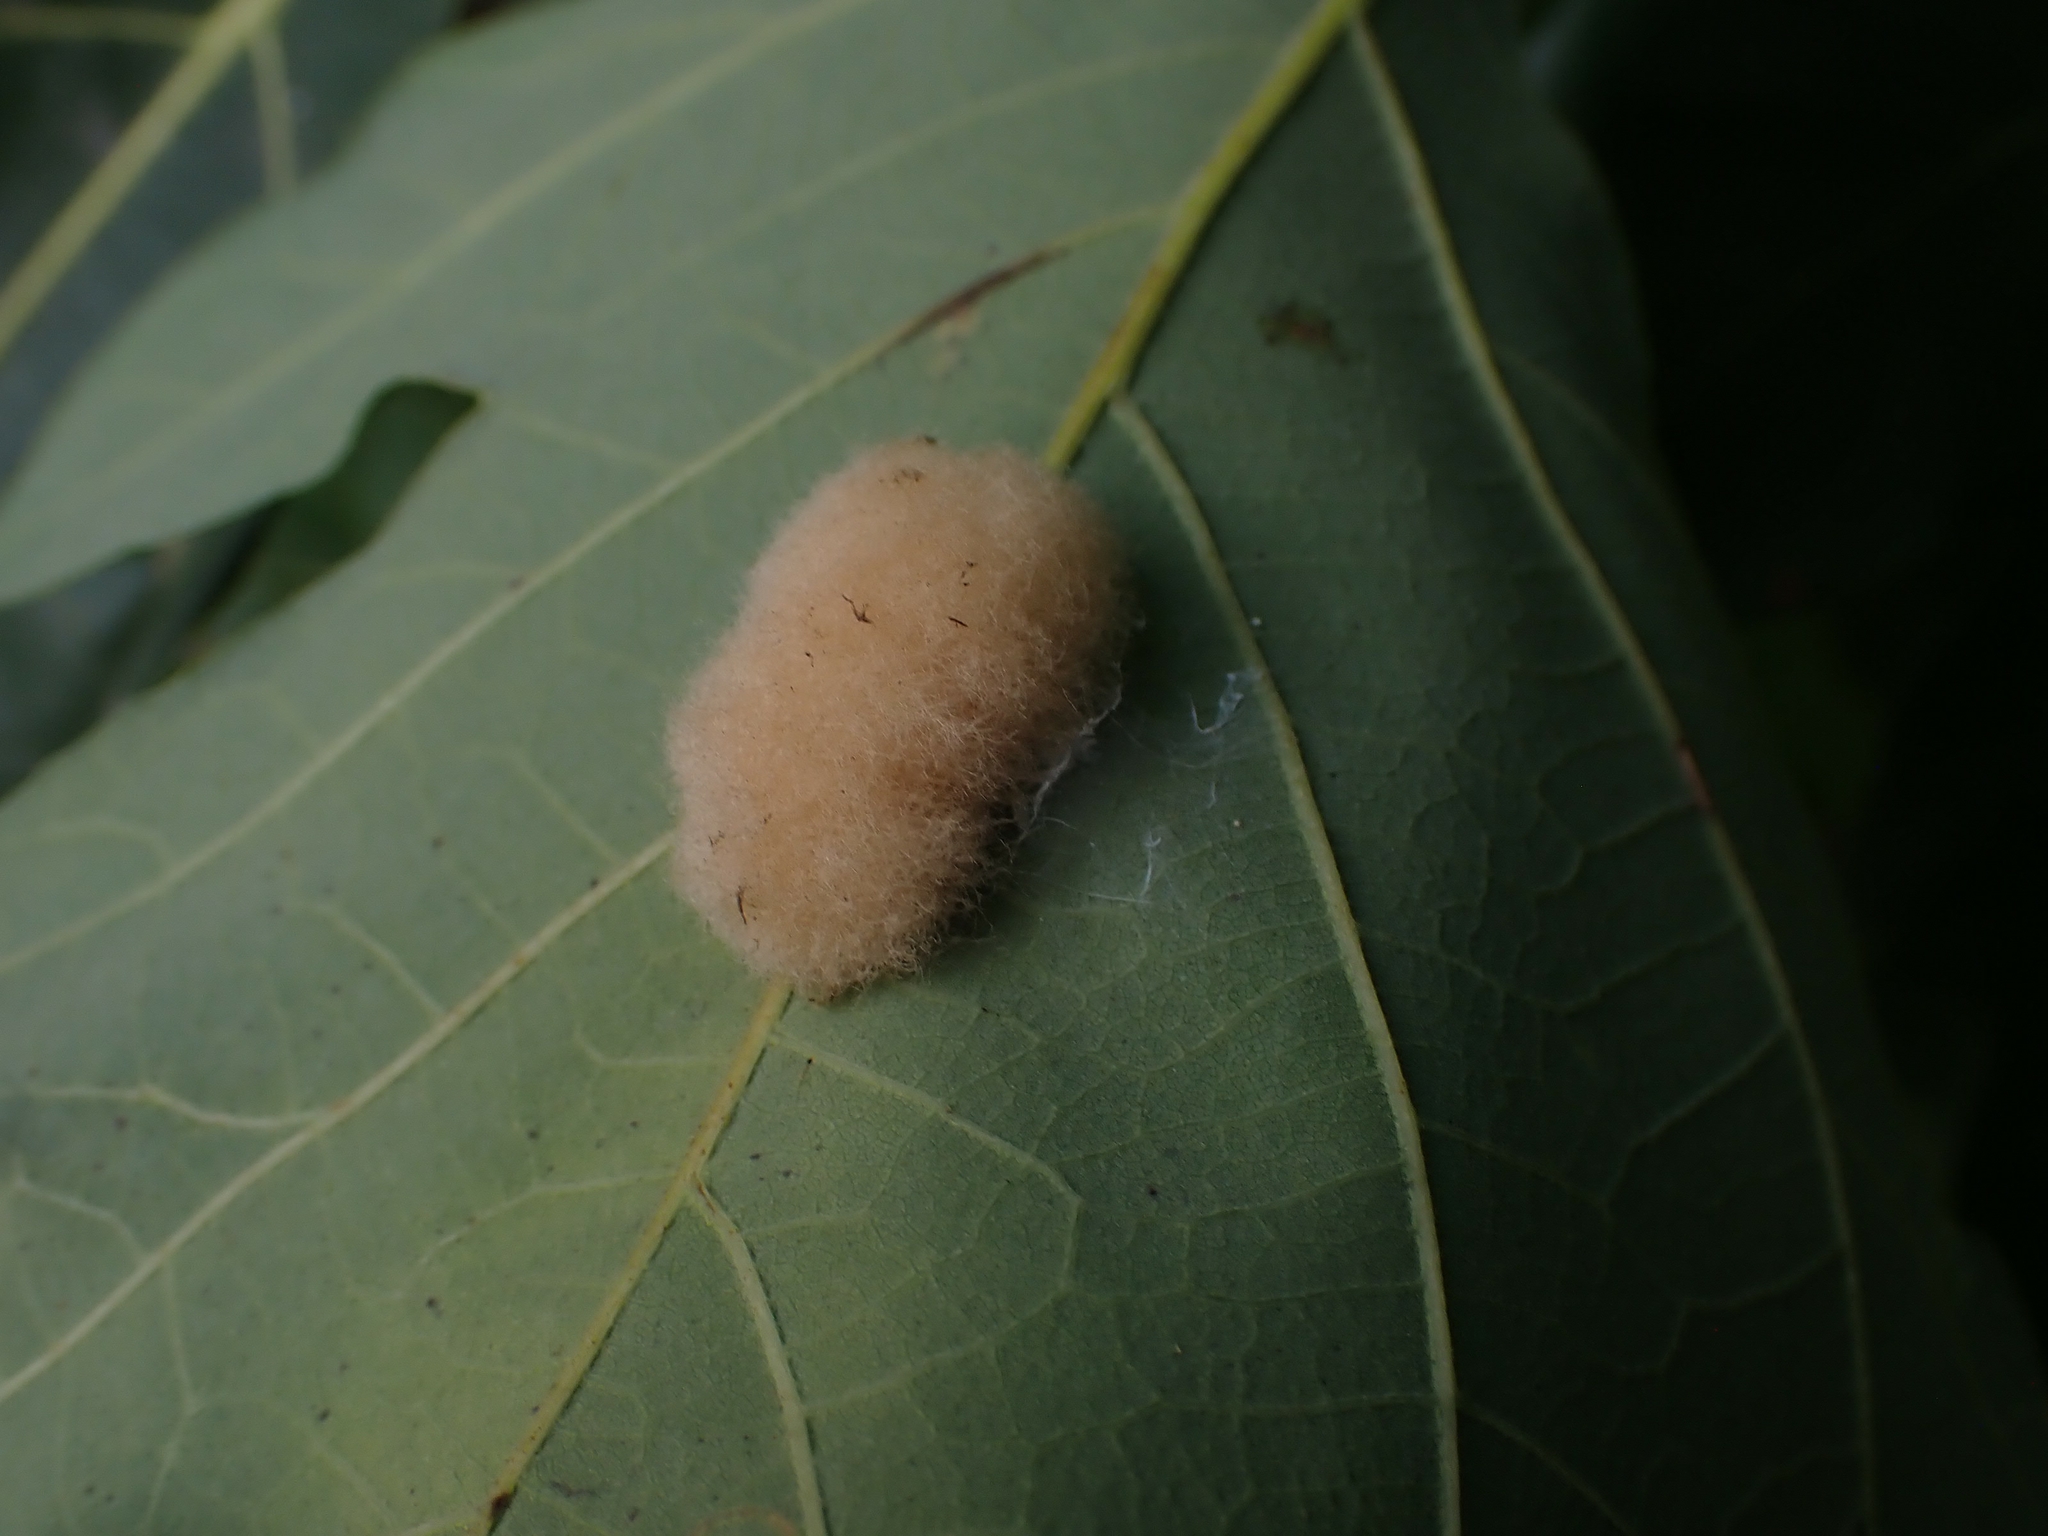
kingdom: Animalia
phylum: Arthropoda
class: Insecta
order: Hymenoptera
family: Cynipidae
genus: Andricus
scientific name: Andricus Druon ignotum
